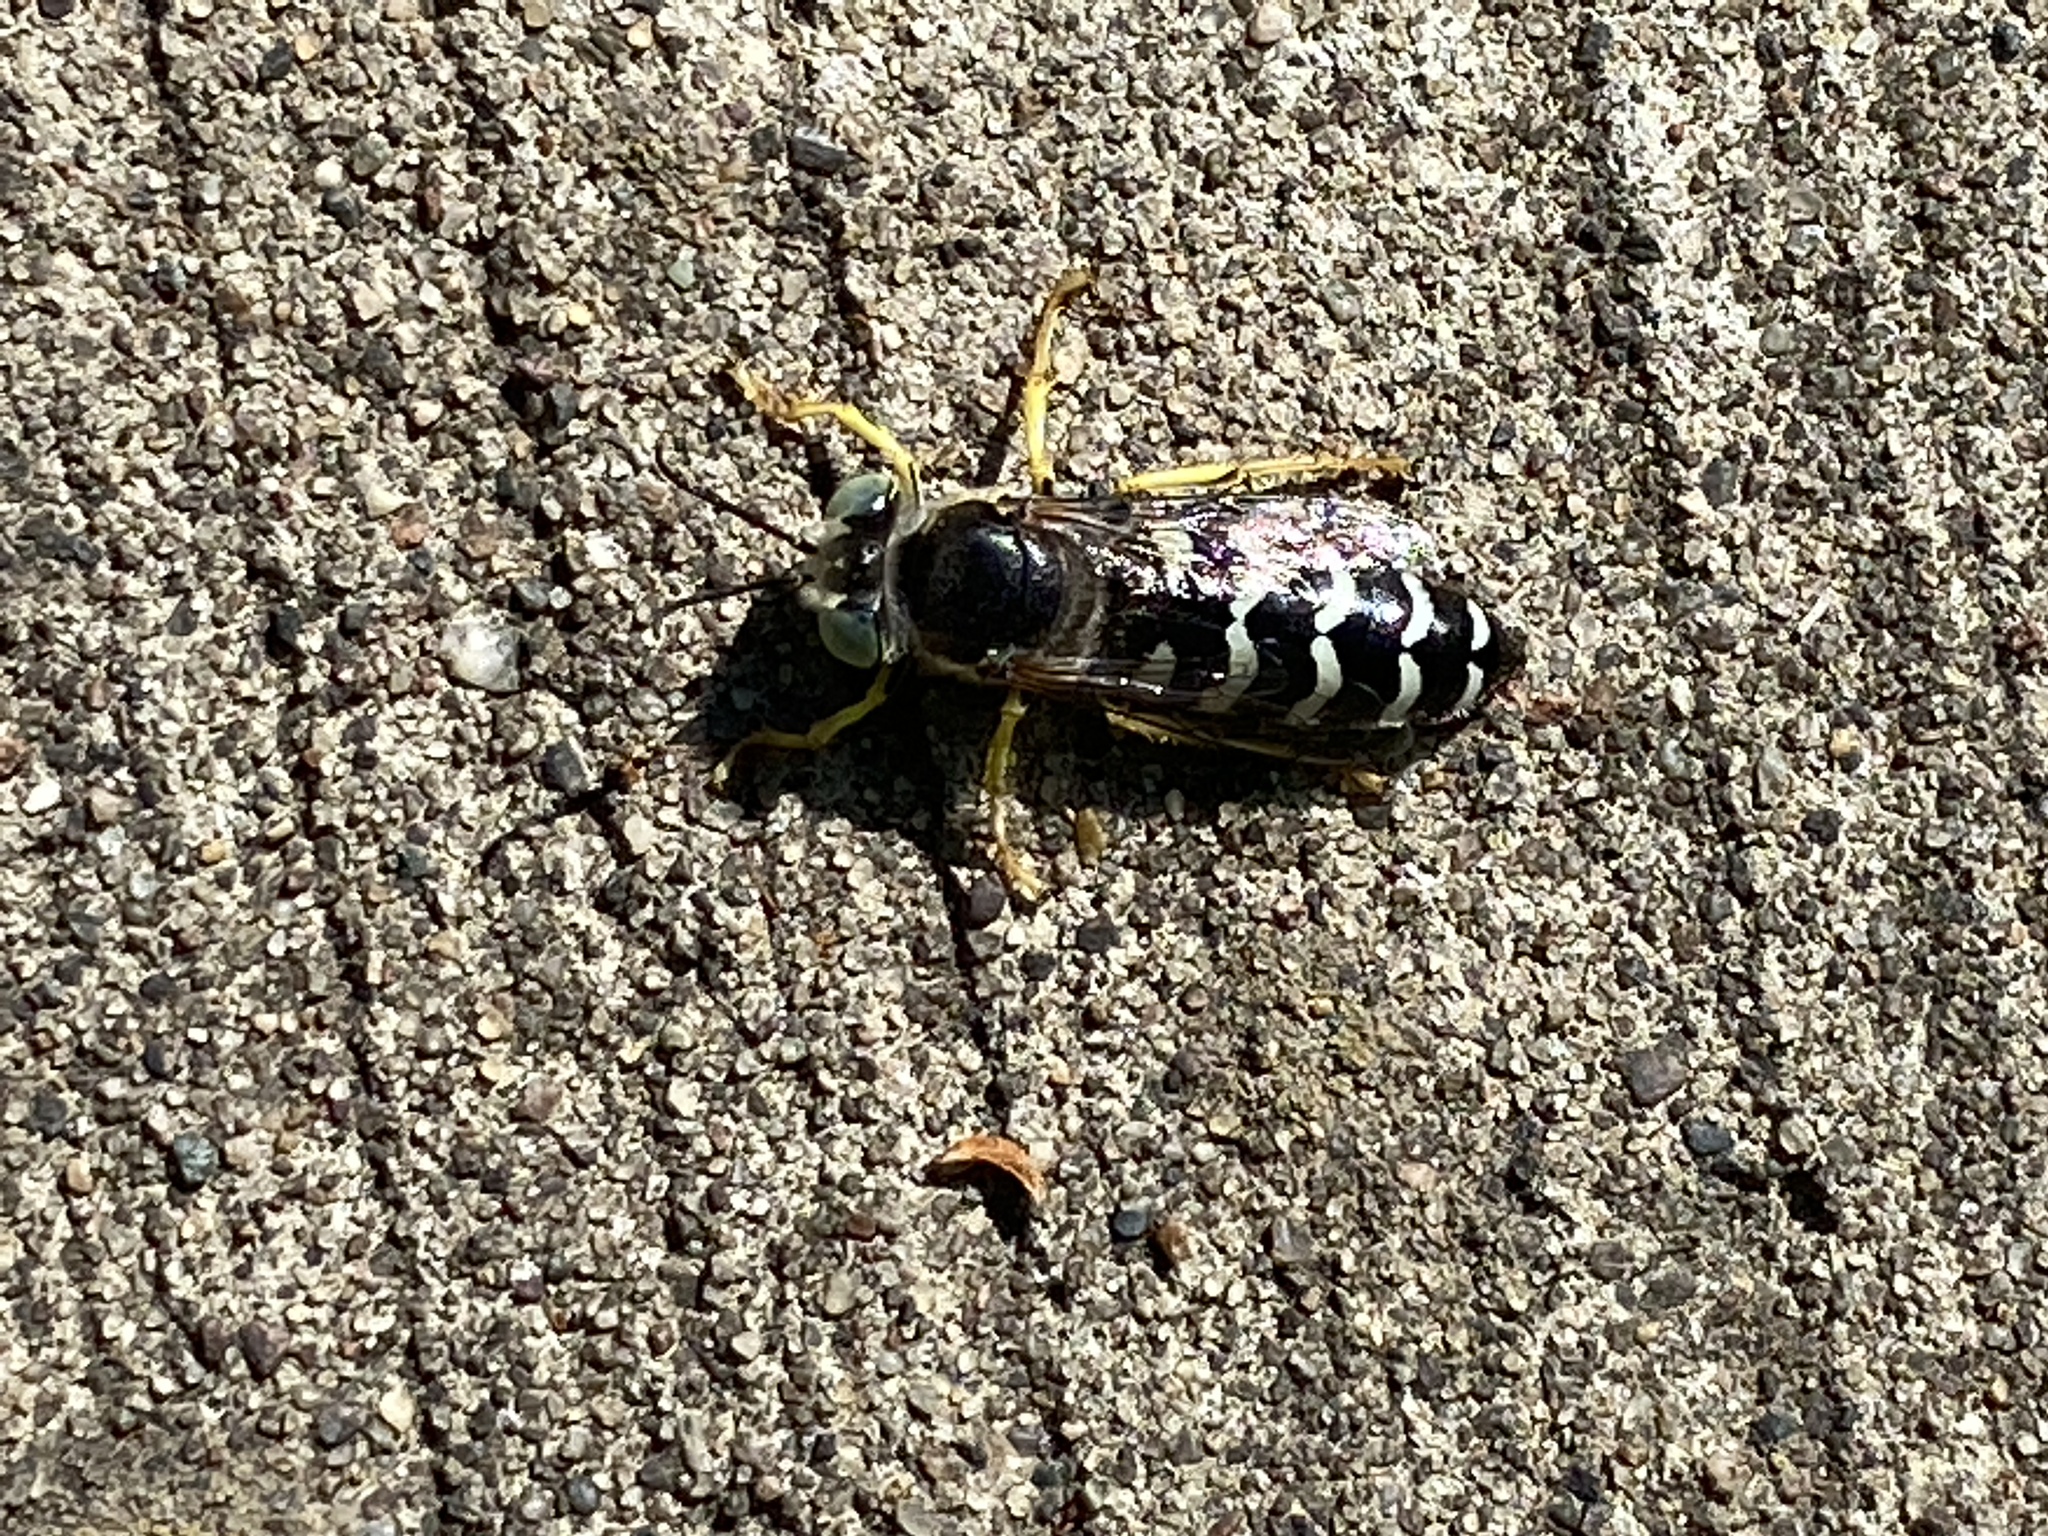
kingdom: Animalia
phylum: Arthropoda
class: Insecta
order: Hymenoptera
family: Crabronidae
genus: Bembix
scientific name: Bembix americana
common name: American sand wasp
